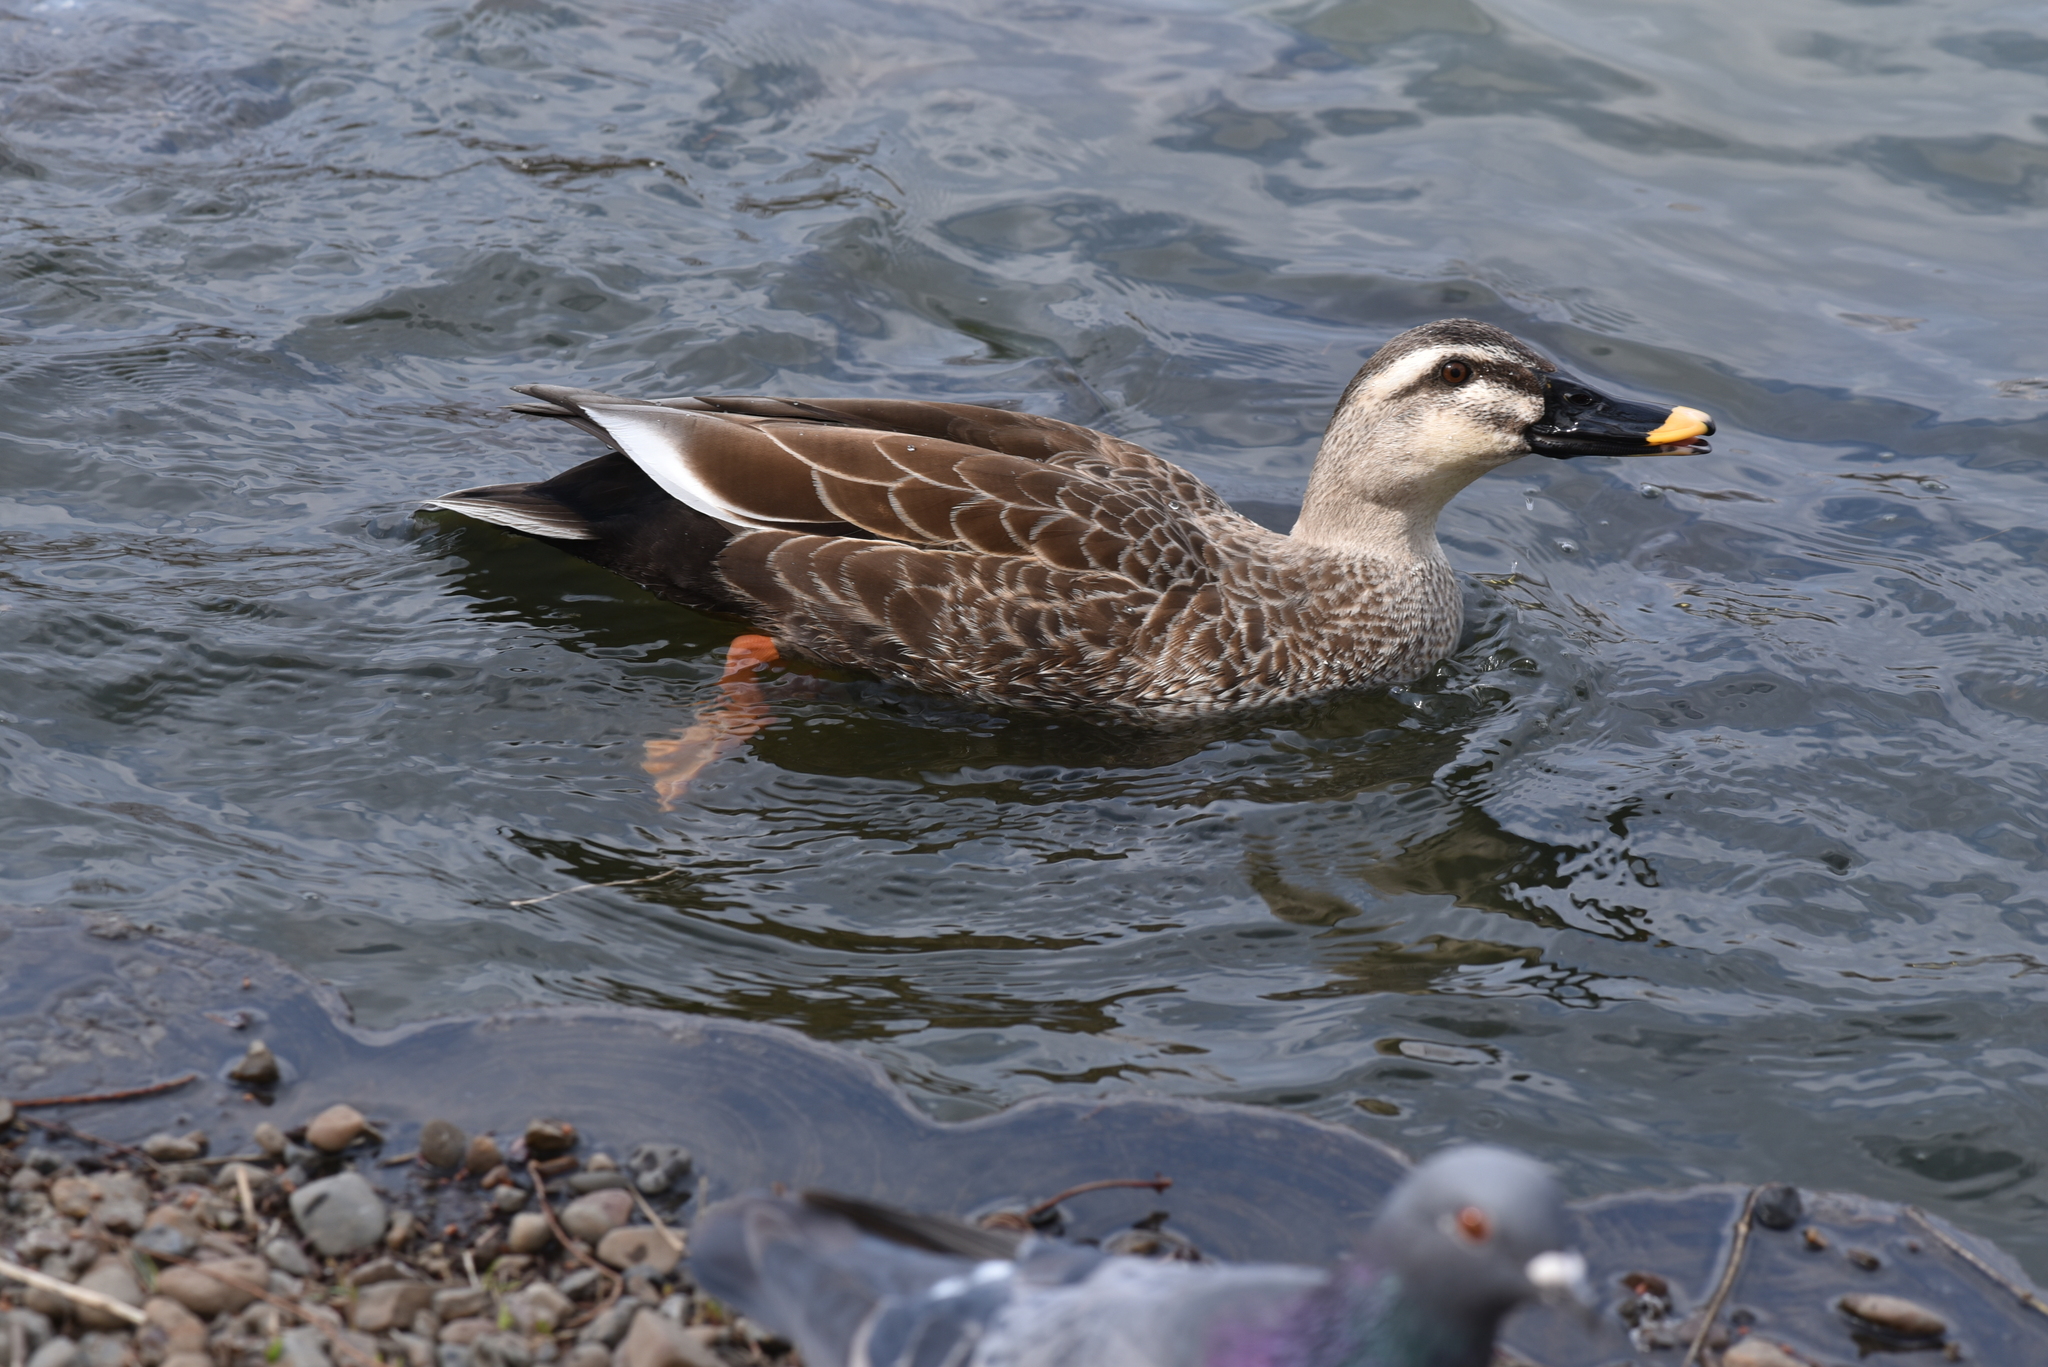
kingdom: Animalia
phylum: Chordata
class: Aves
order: Anseriformes
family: Anatidae
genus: Anas
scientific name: Anas zonorhyncha
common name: Eastern spot-billed duck
